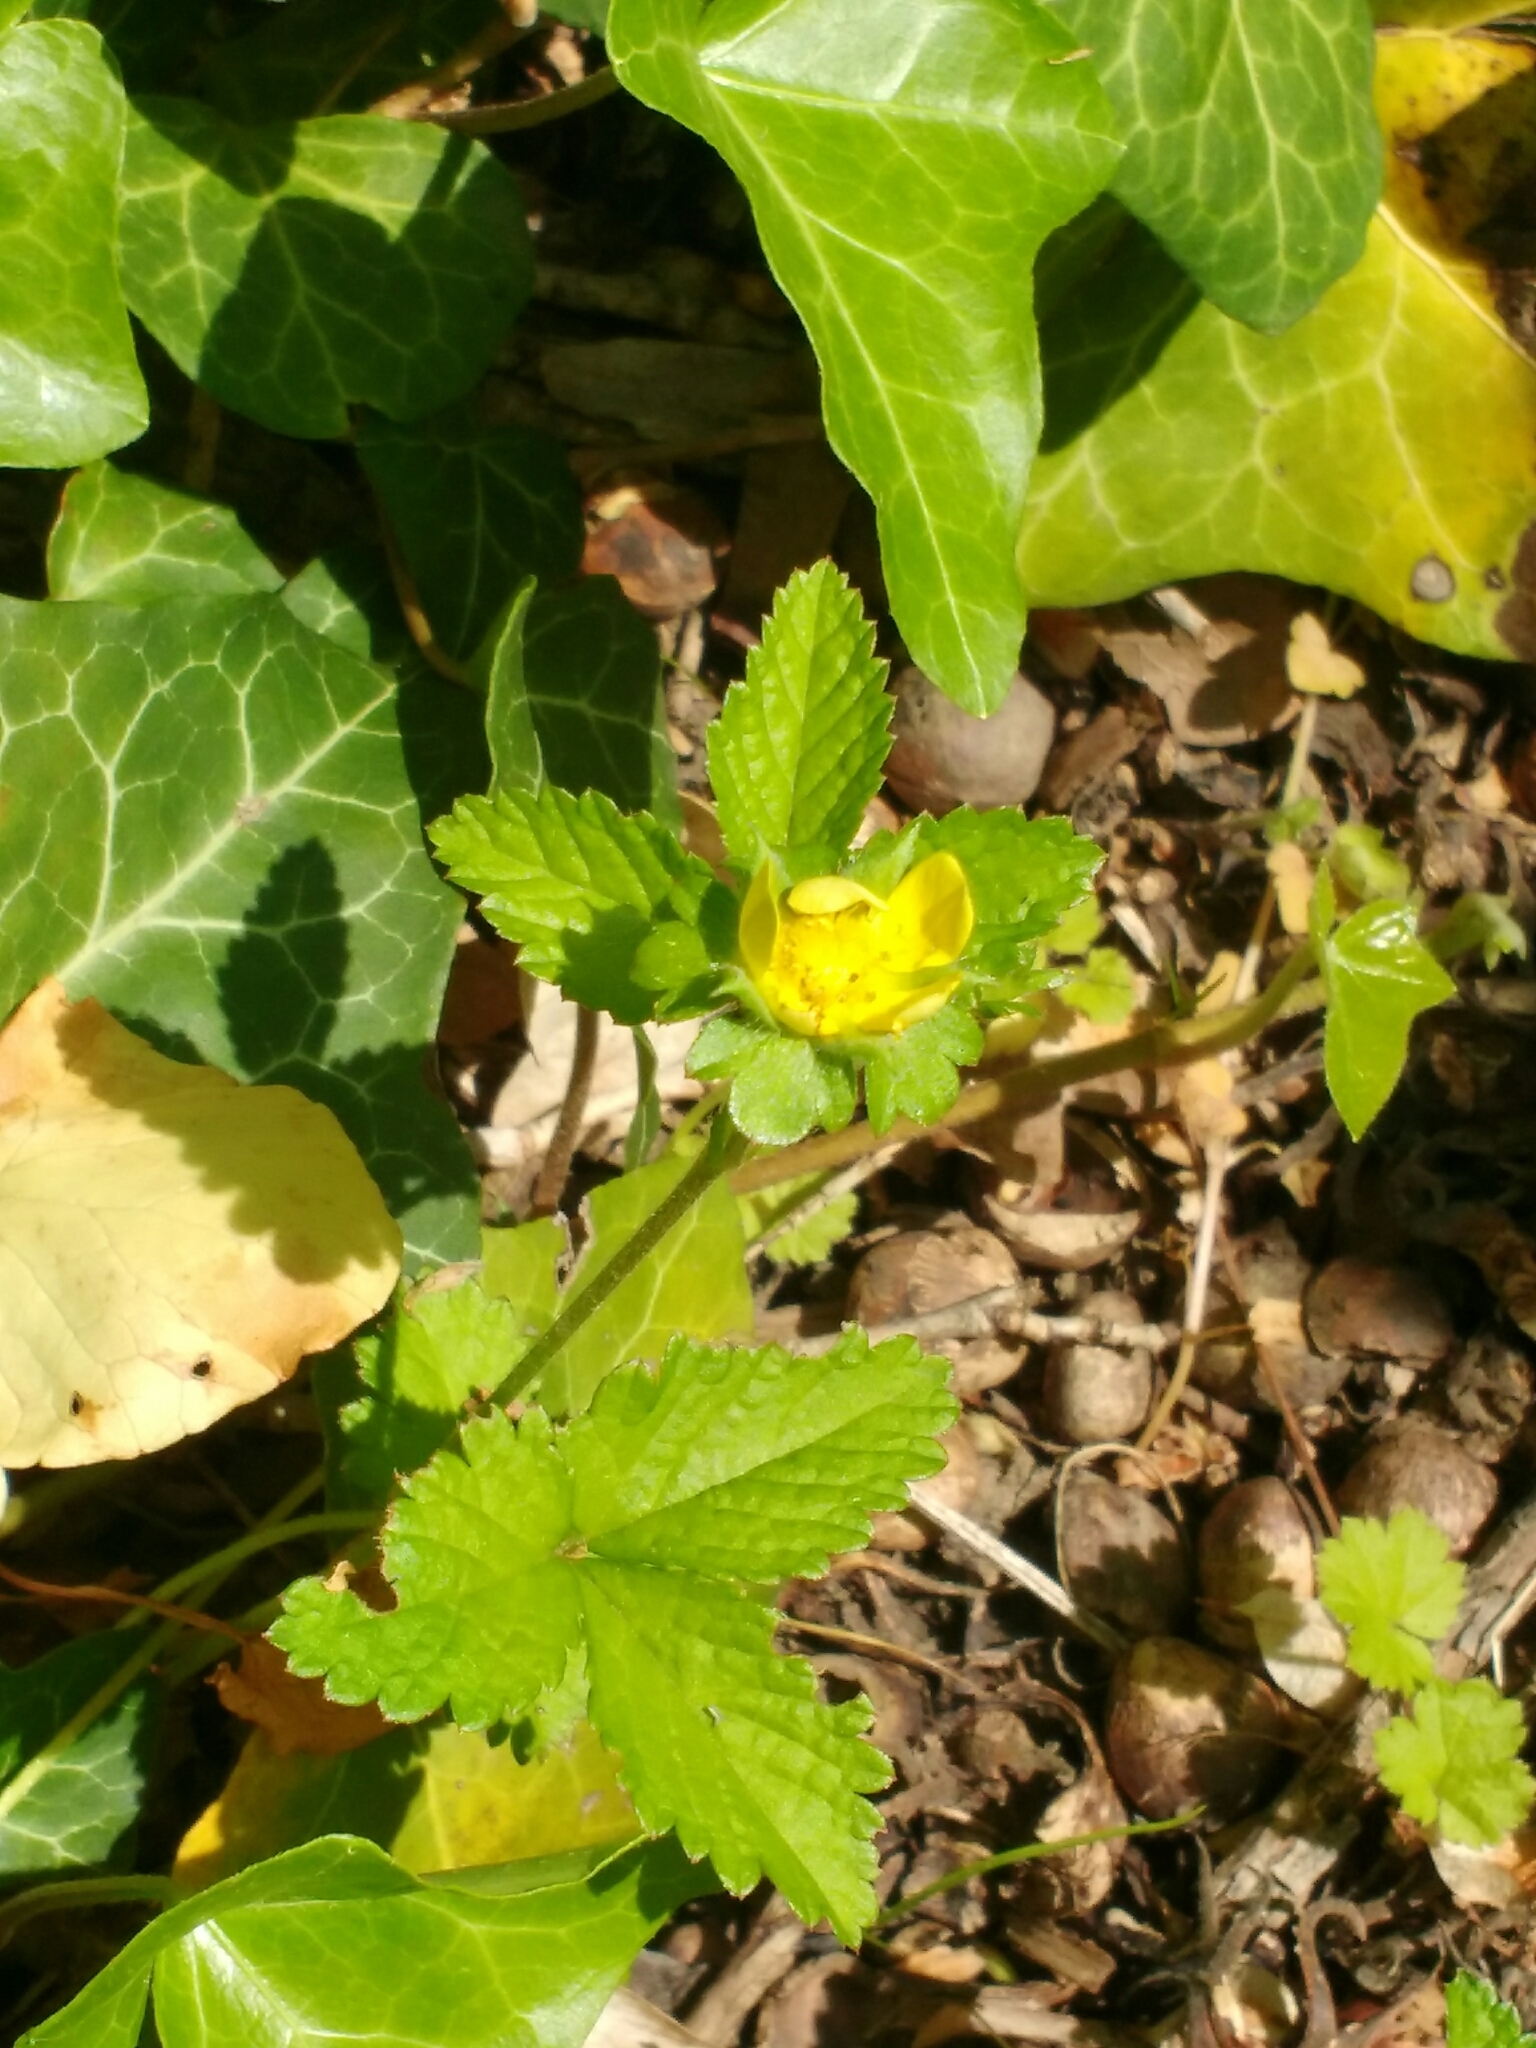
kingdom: Plantae
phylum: Tracheophyta
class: Magnoliopsida
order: Rosales
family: Rosaceae
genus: Potentilla
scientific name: Potentilla indica
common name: Yellow-flowered strawberry
